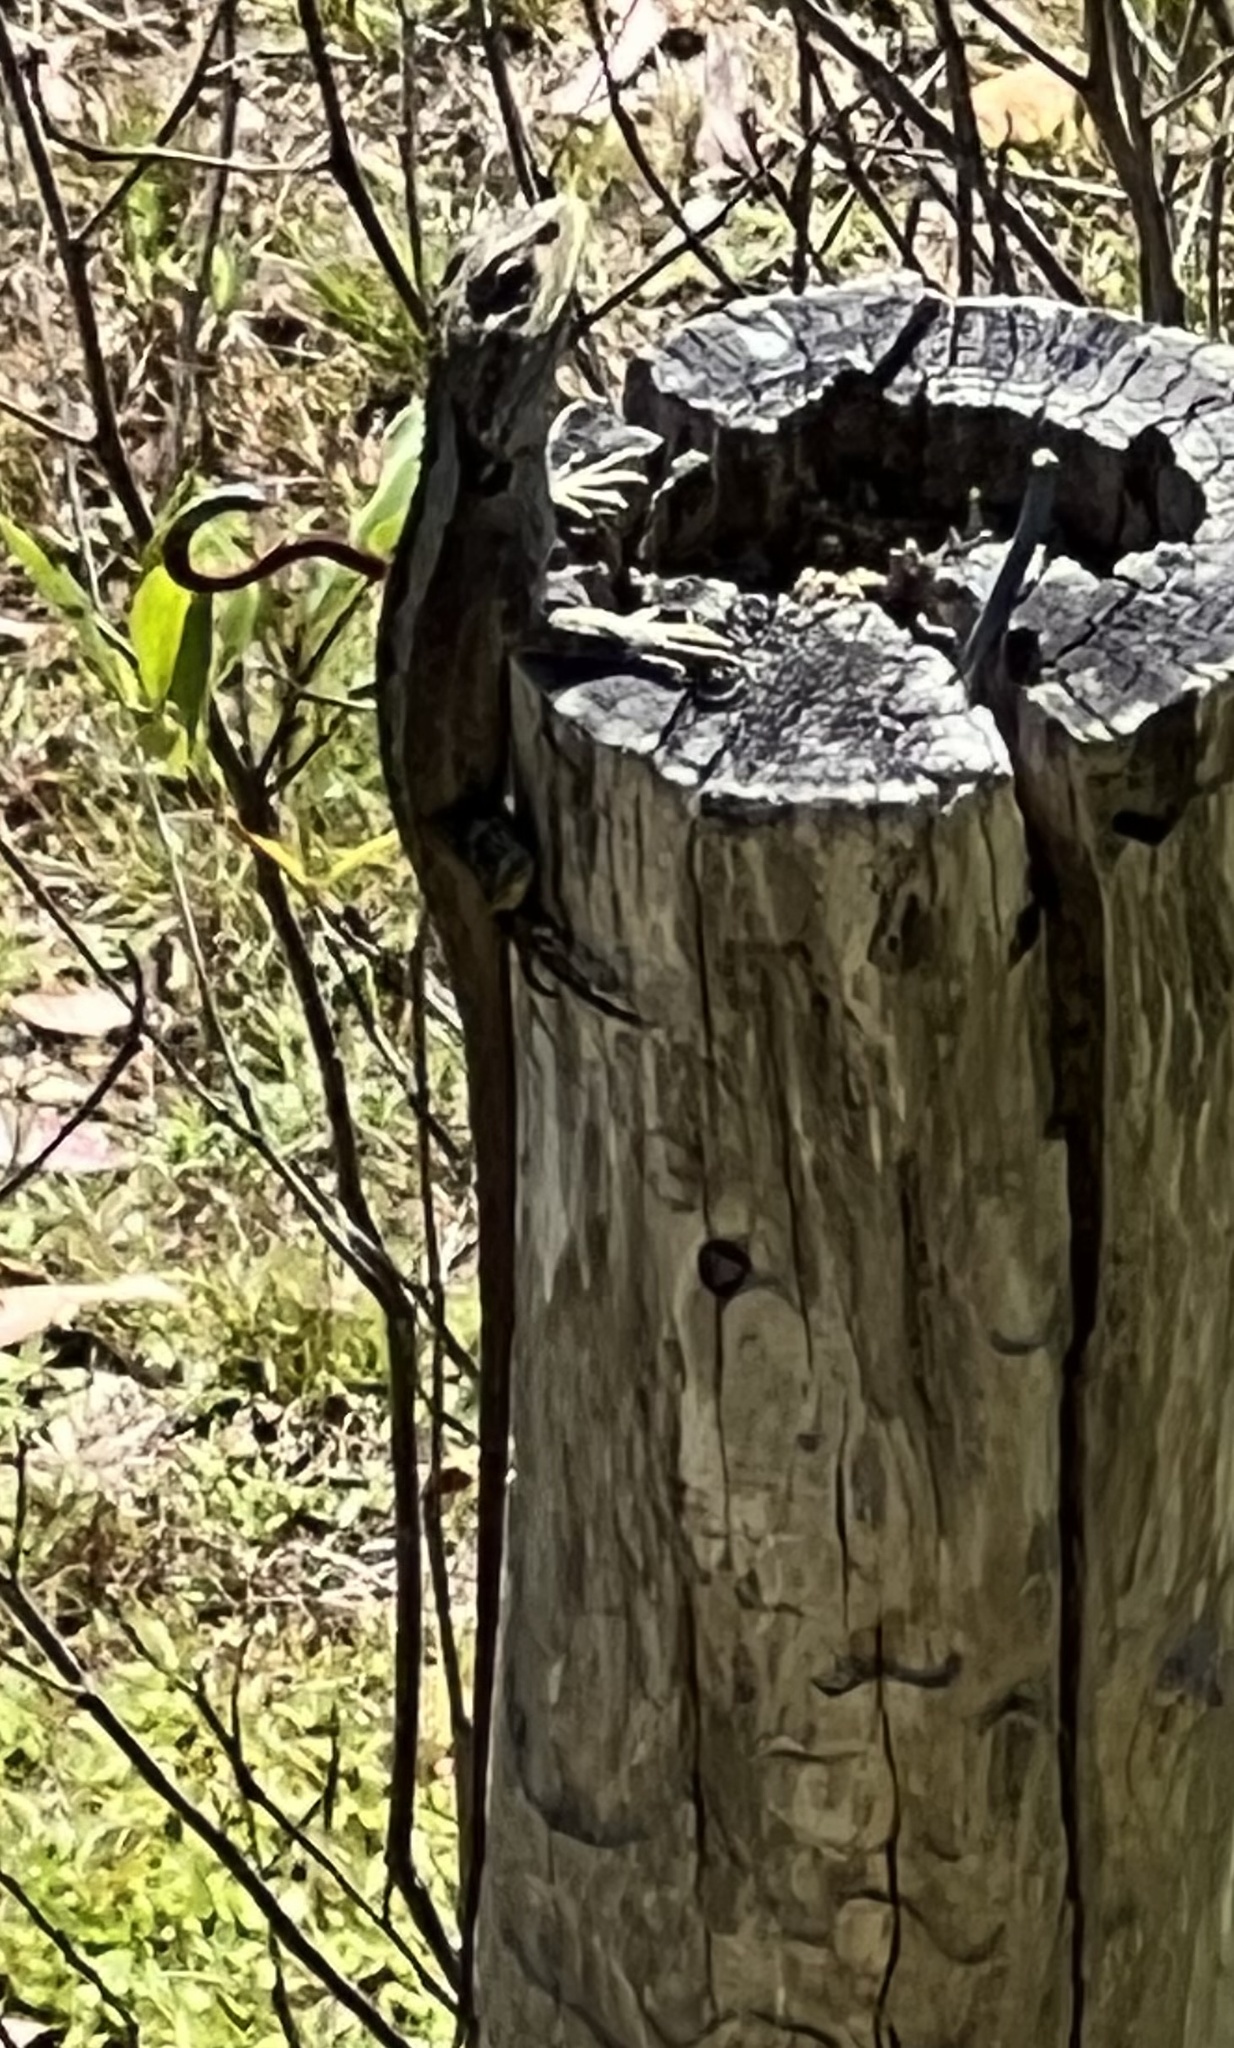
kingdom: Animalia
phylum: Chordata
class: Squamata
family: Agamidae
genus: Amphibolurus
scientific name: Amphibolurus muricatus
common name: Jacky lizard
